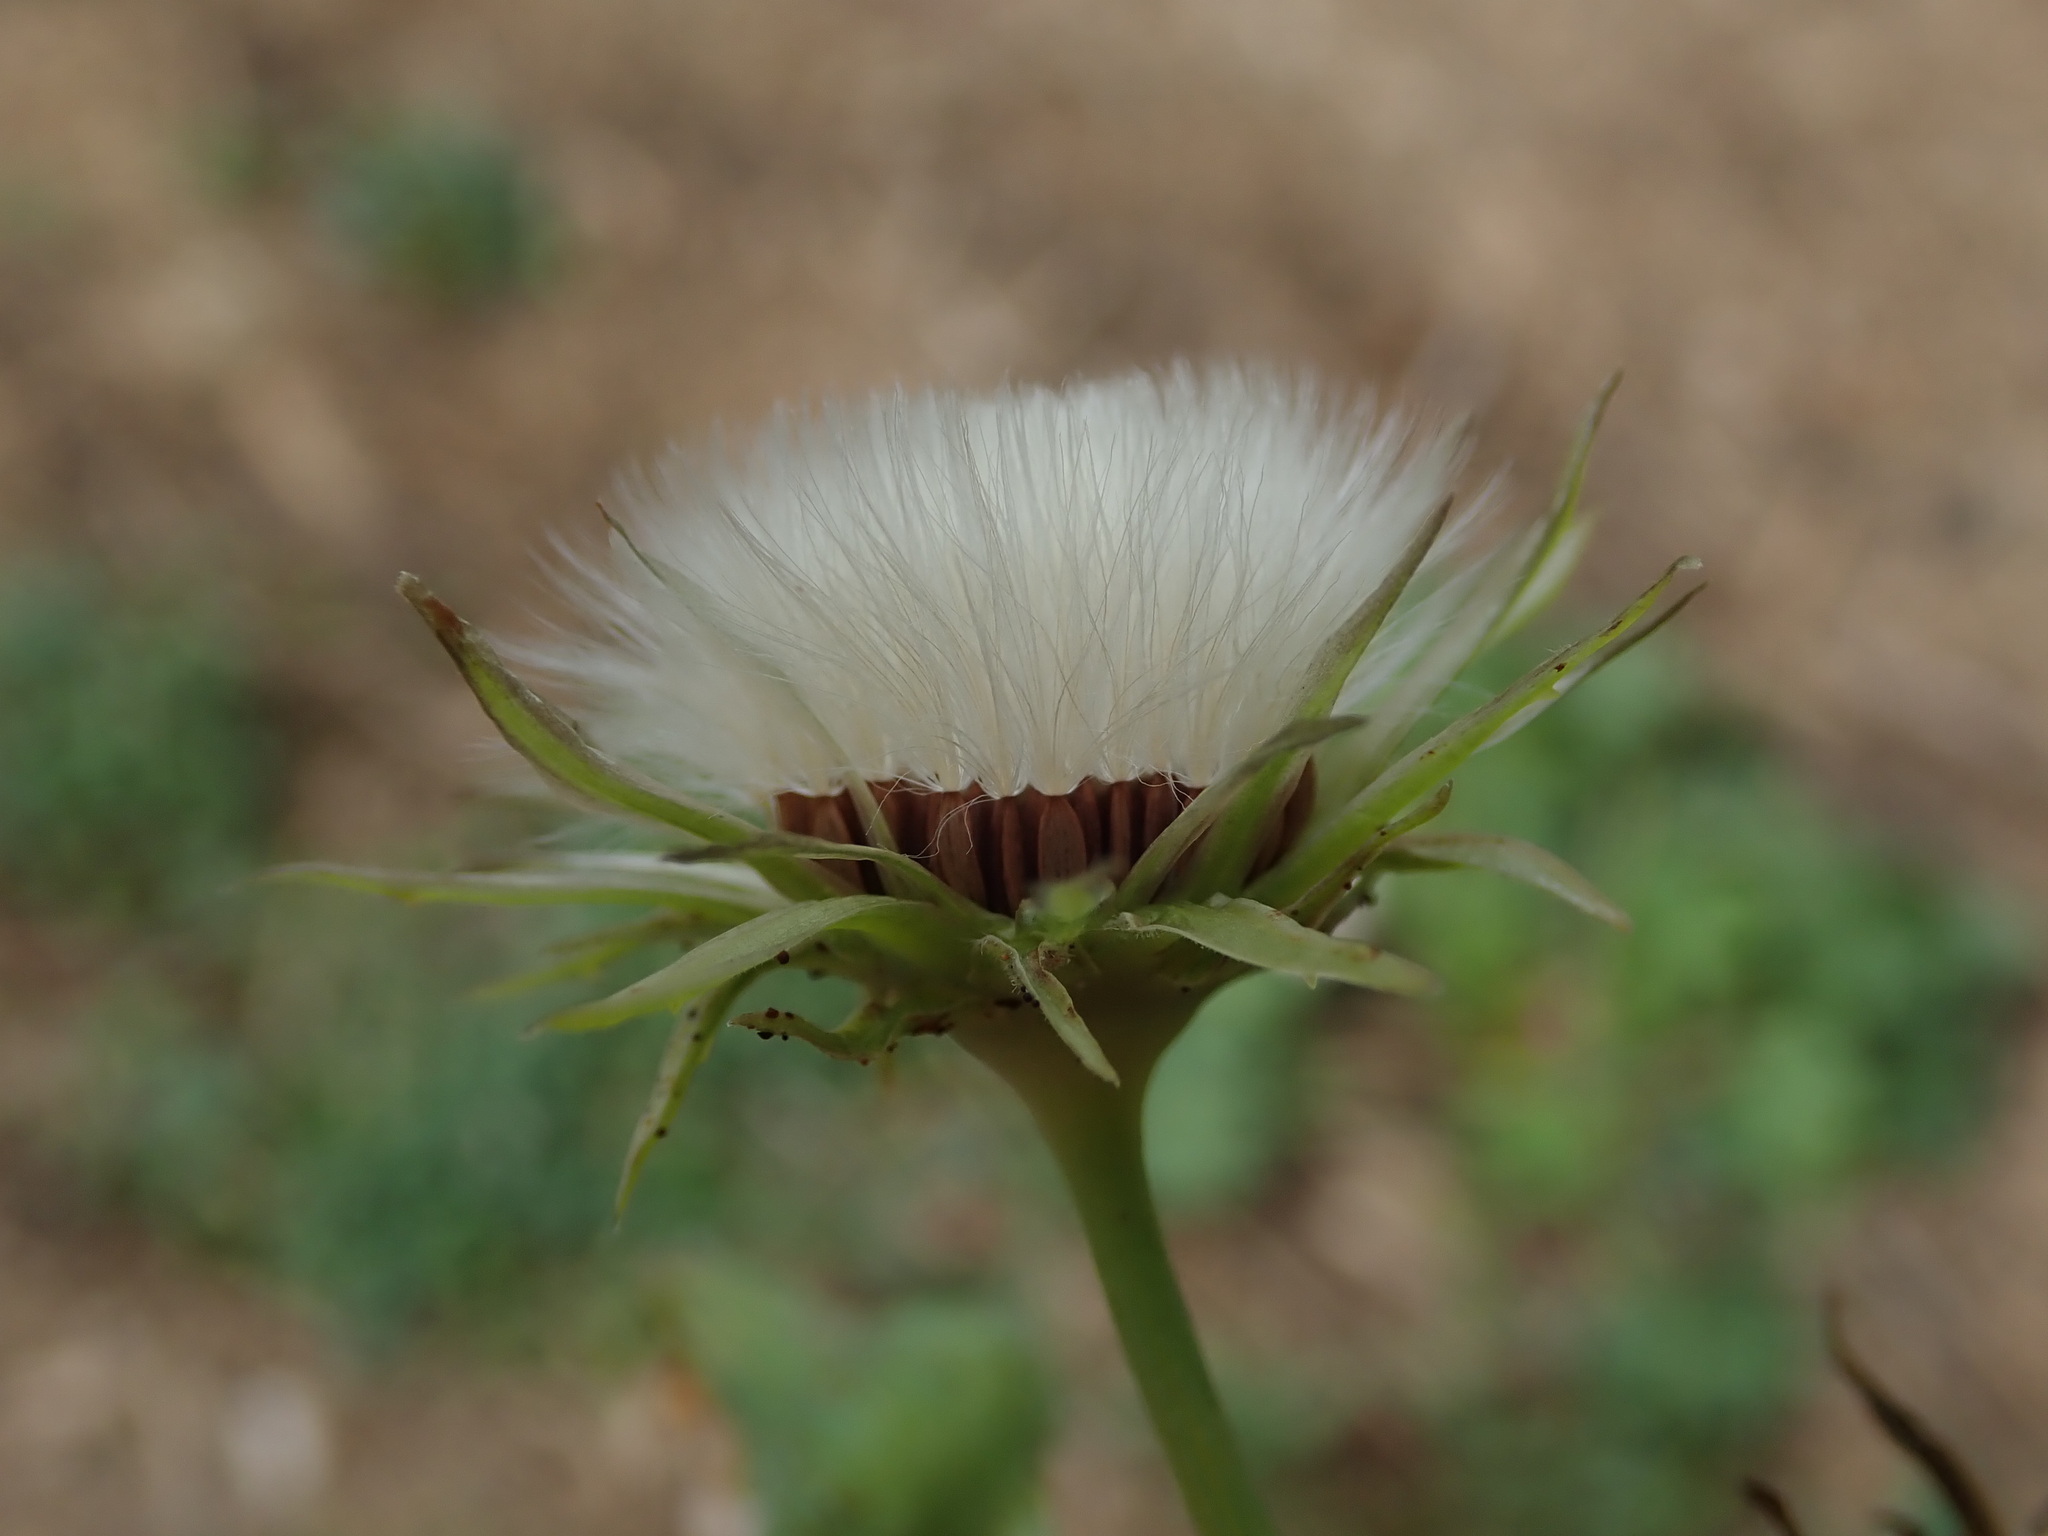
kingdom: Plantae
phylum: Tracheophyta
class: Magnoliopsida
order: Asterales
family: Asteraceae
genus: Sonchus
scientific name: Sonchus asper
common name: Prickly sow-thistle
